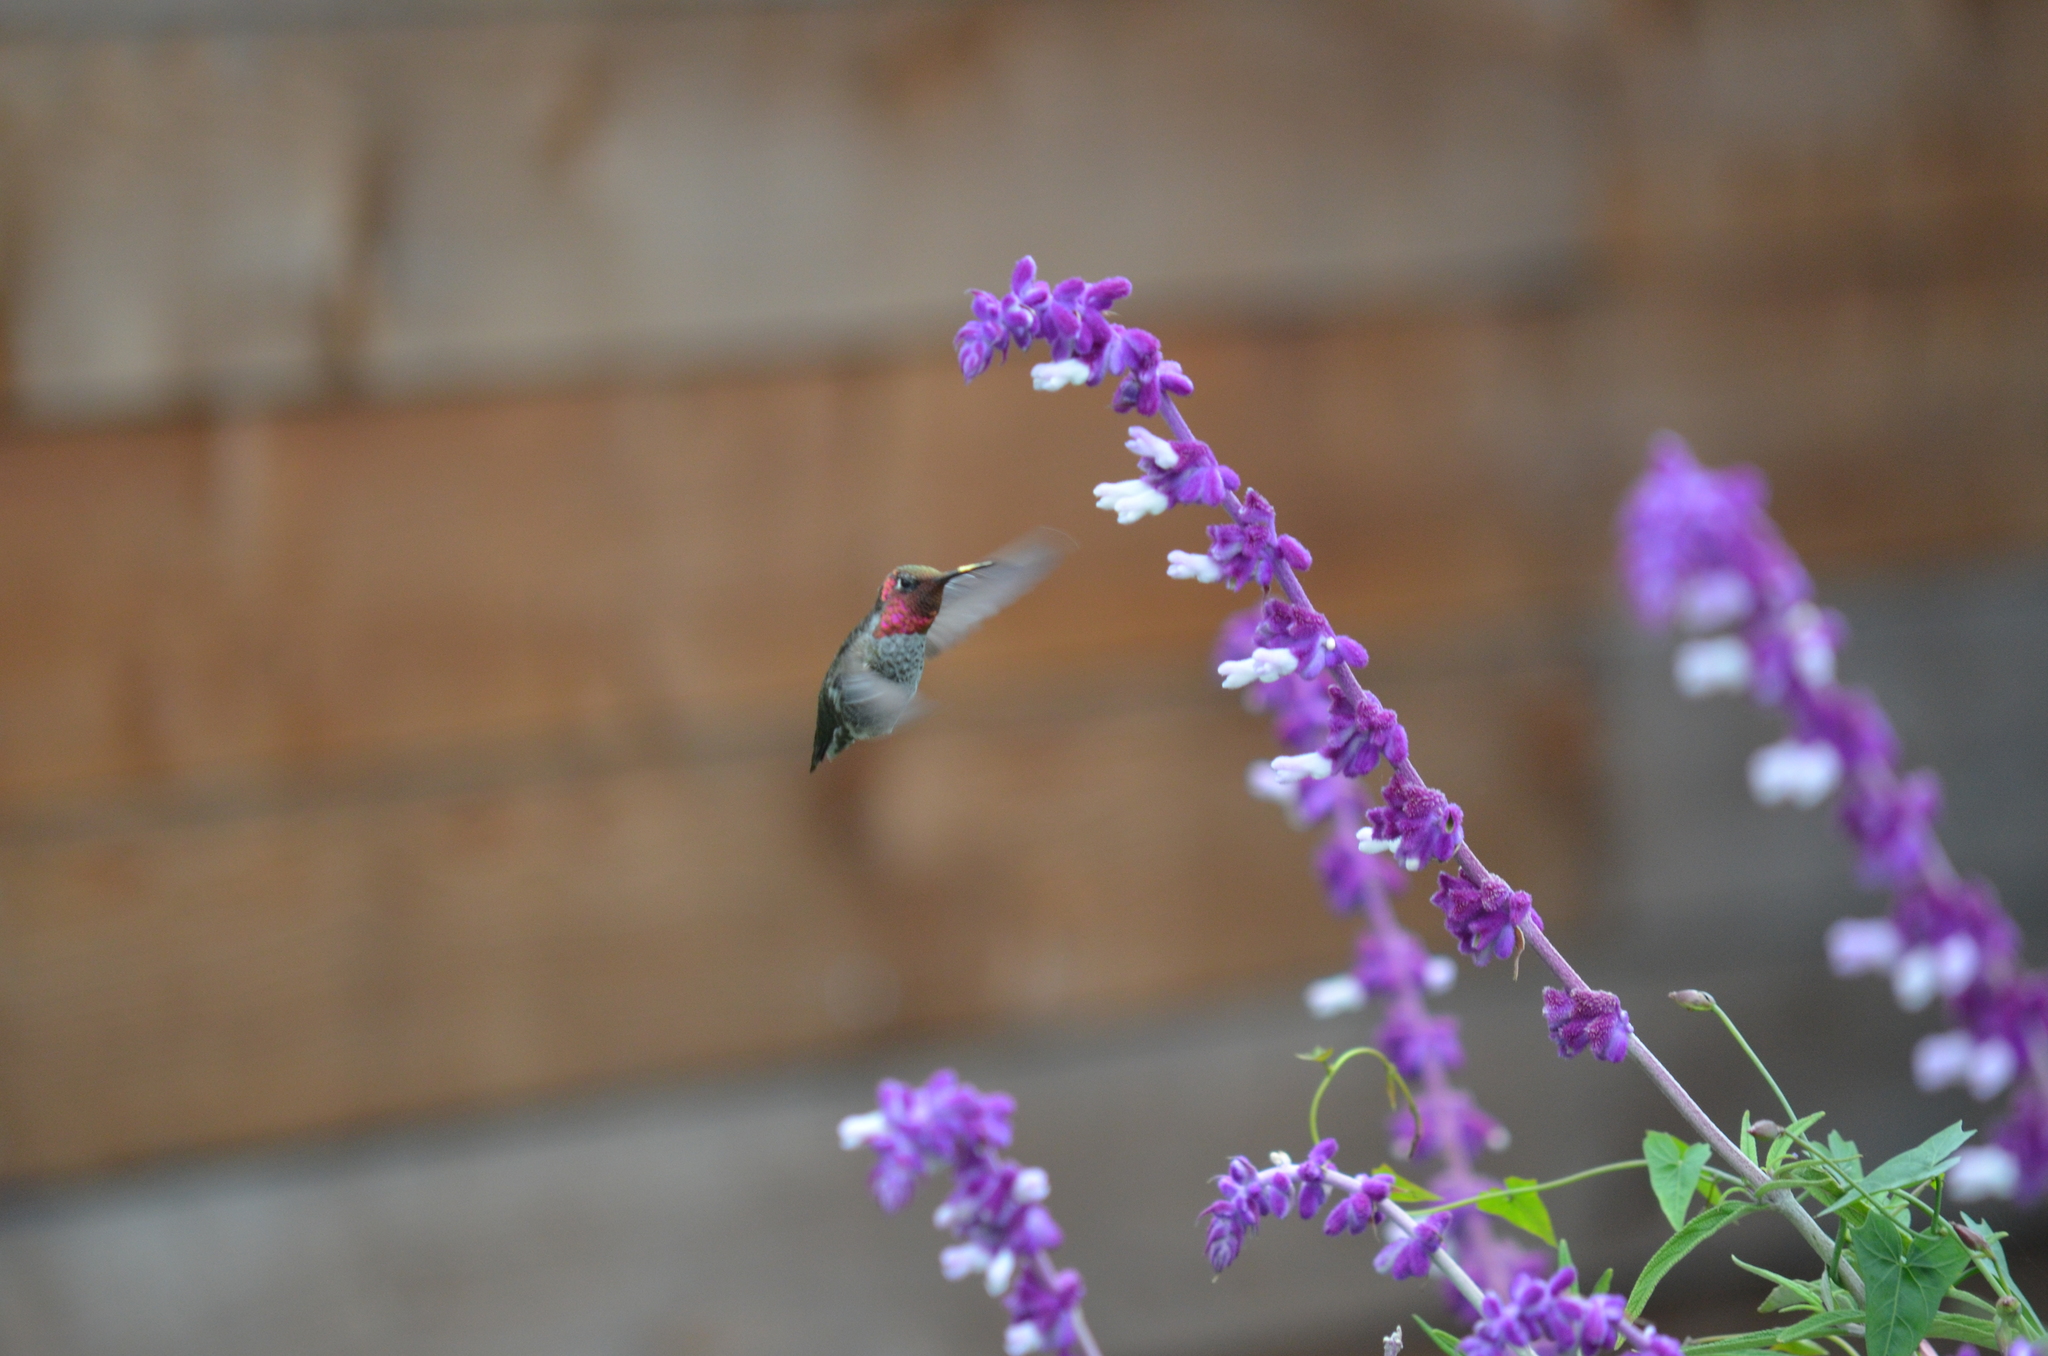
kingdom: Animalia
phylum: Chordata
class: Aves
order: Apodiformes
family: Trochilidae
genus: Calypte
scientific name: Calypte anna
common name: Anna's hummingbird
